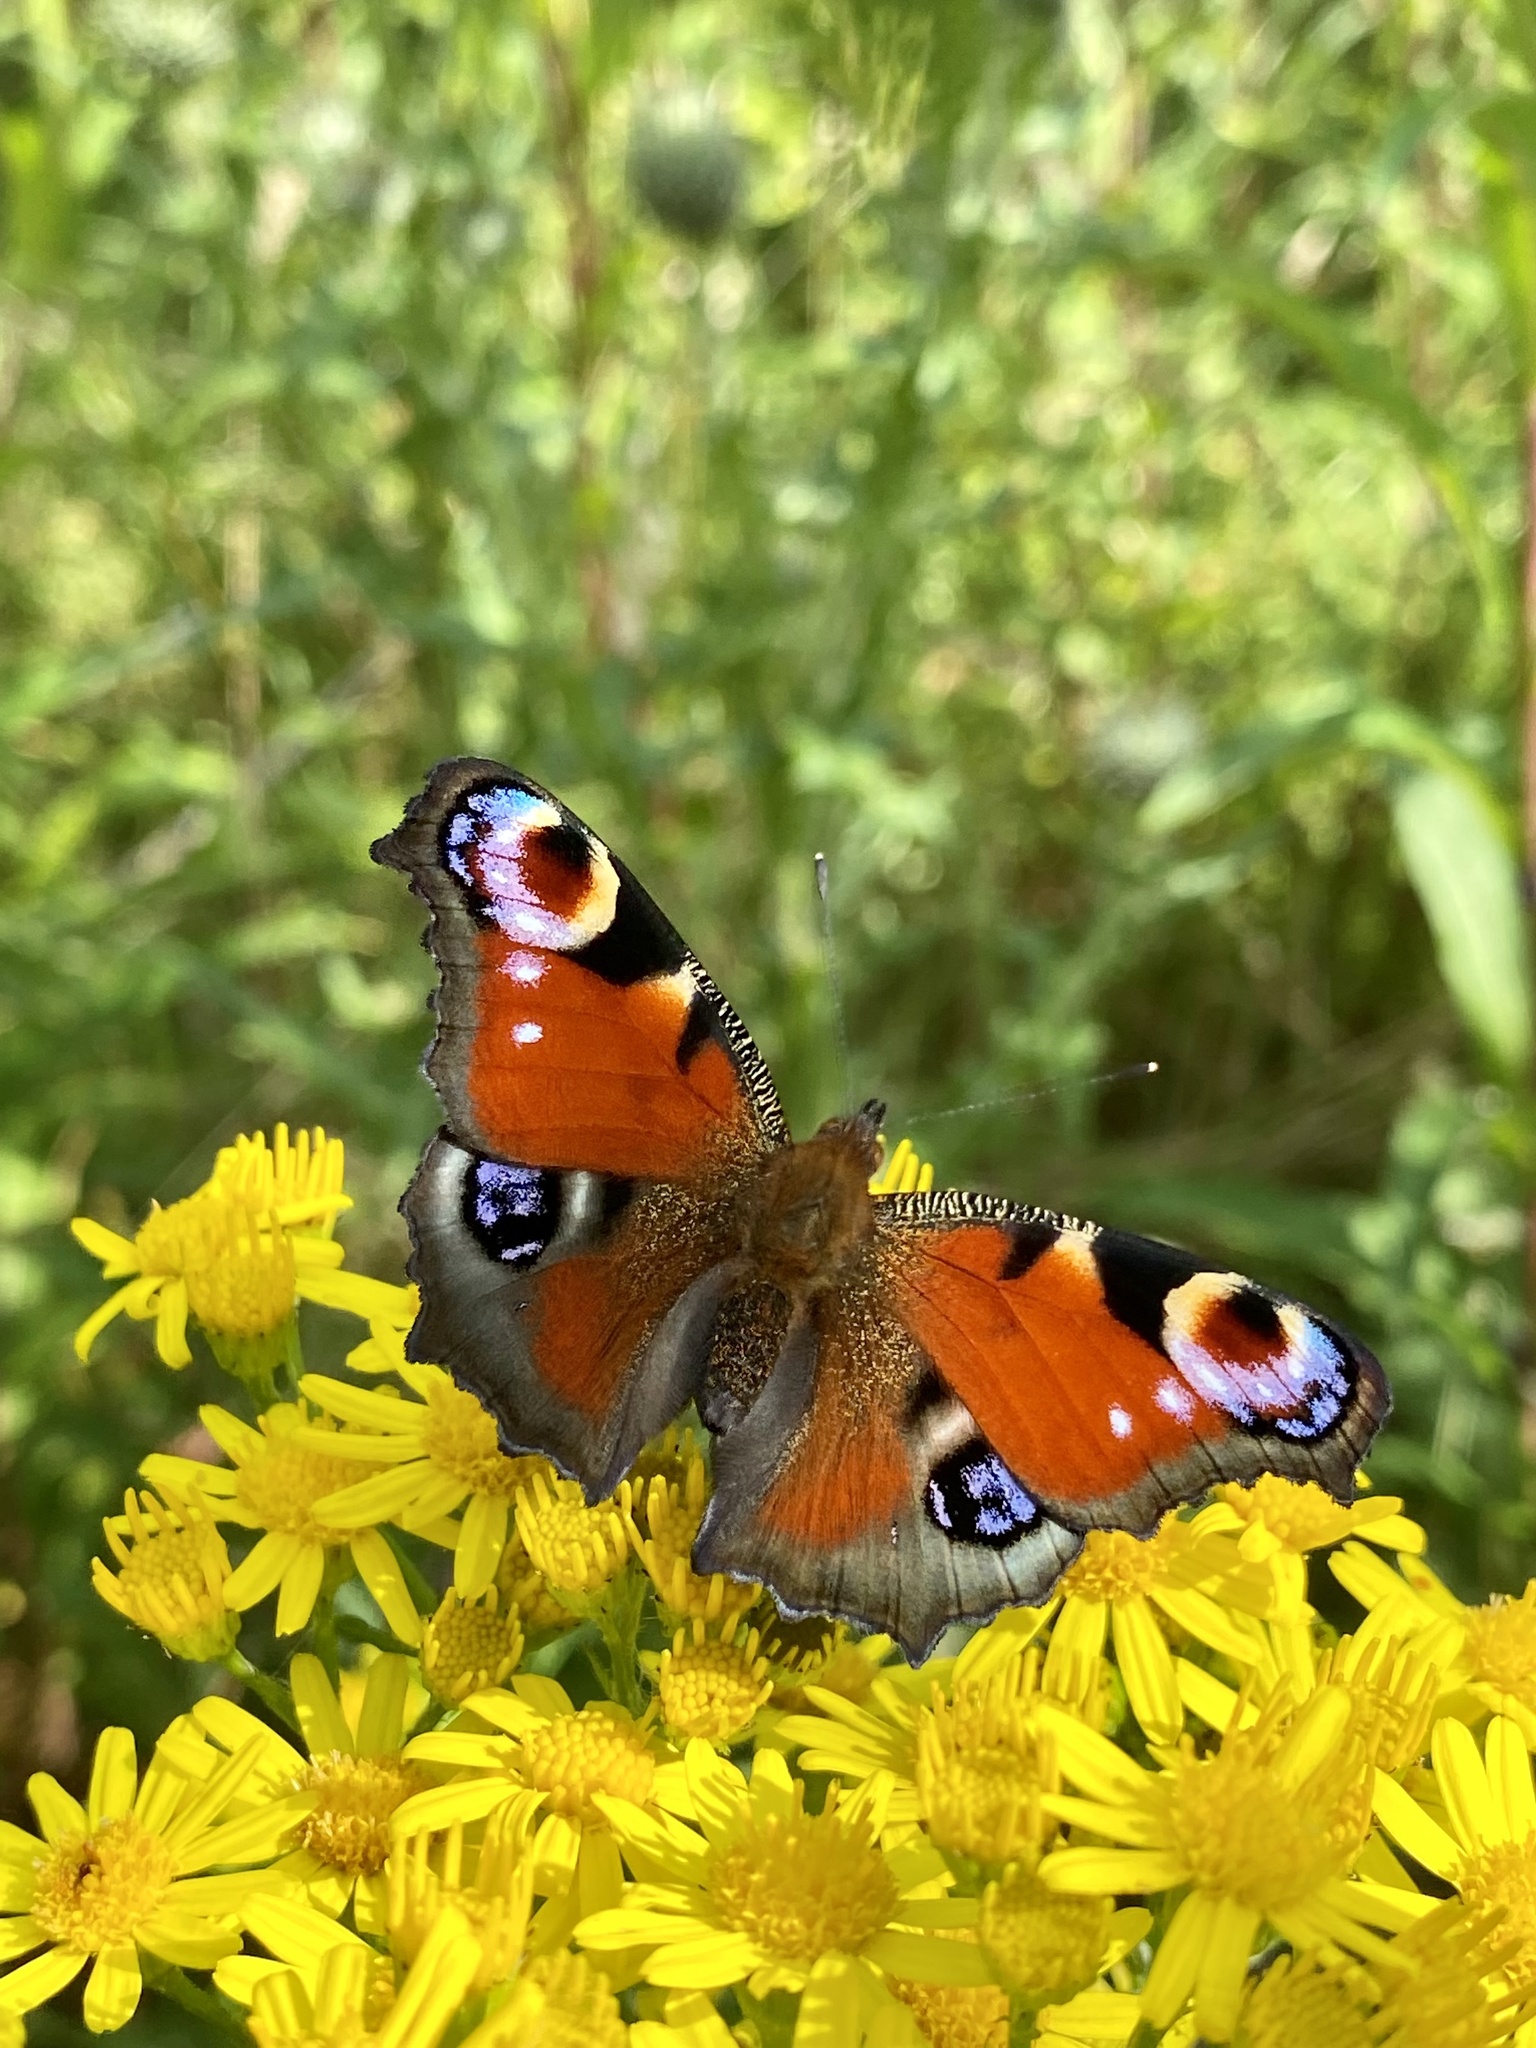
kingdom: Animalia
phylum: Arthropoda
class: Insecta
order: Lepidoptera
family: Nymphalidae
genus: Aglais
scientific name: Aglais io
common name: Peacock
